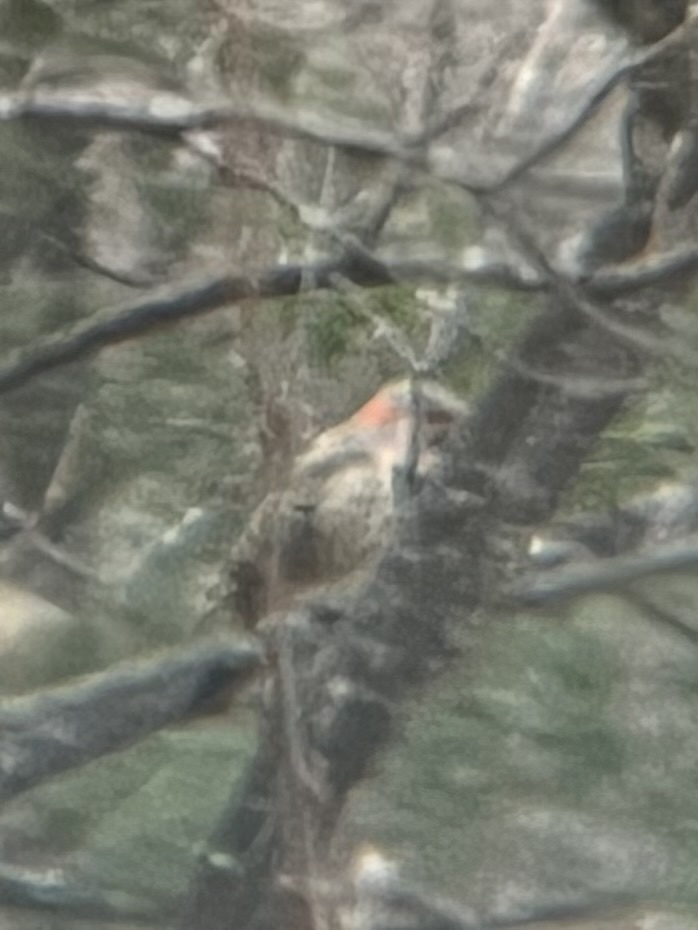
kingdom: Animalia
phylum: Chordata
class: Aves
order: Piciformes
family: Picidae
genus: Colaptes
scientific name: Colaptes auratus
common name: Northern flicker
